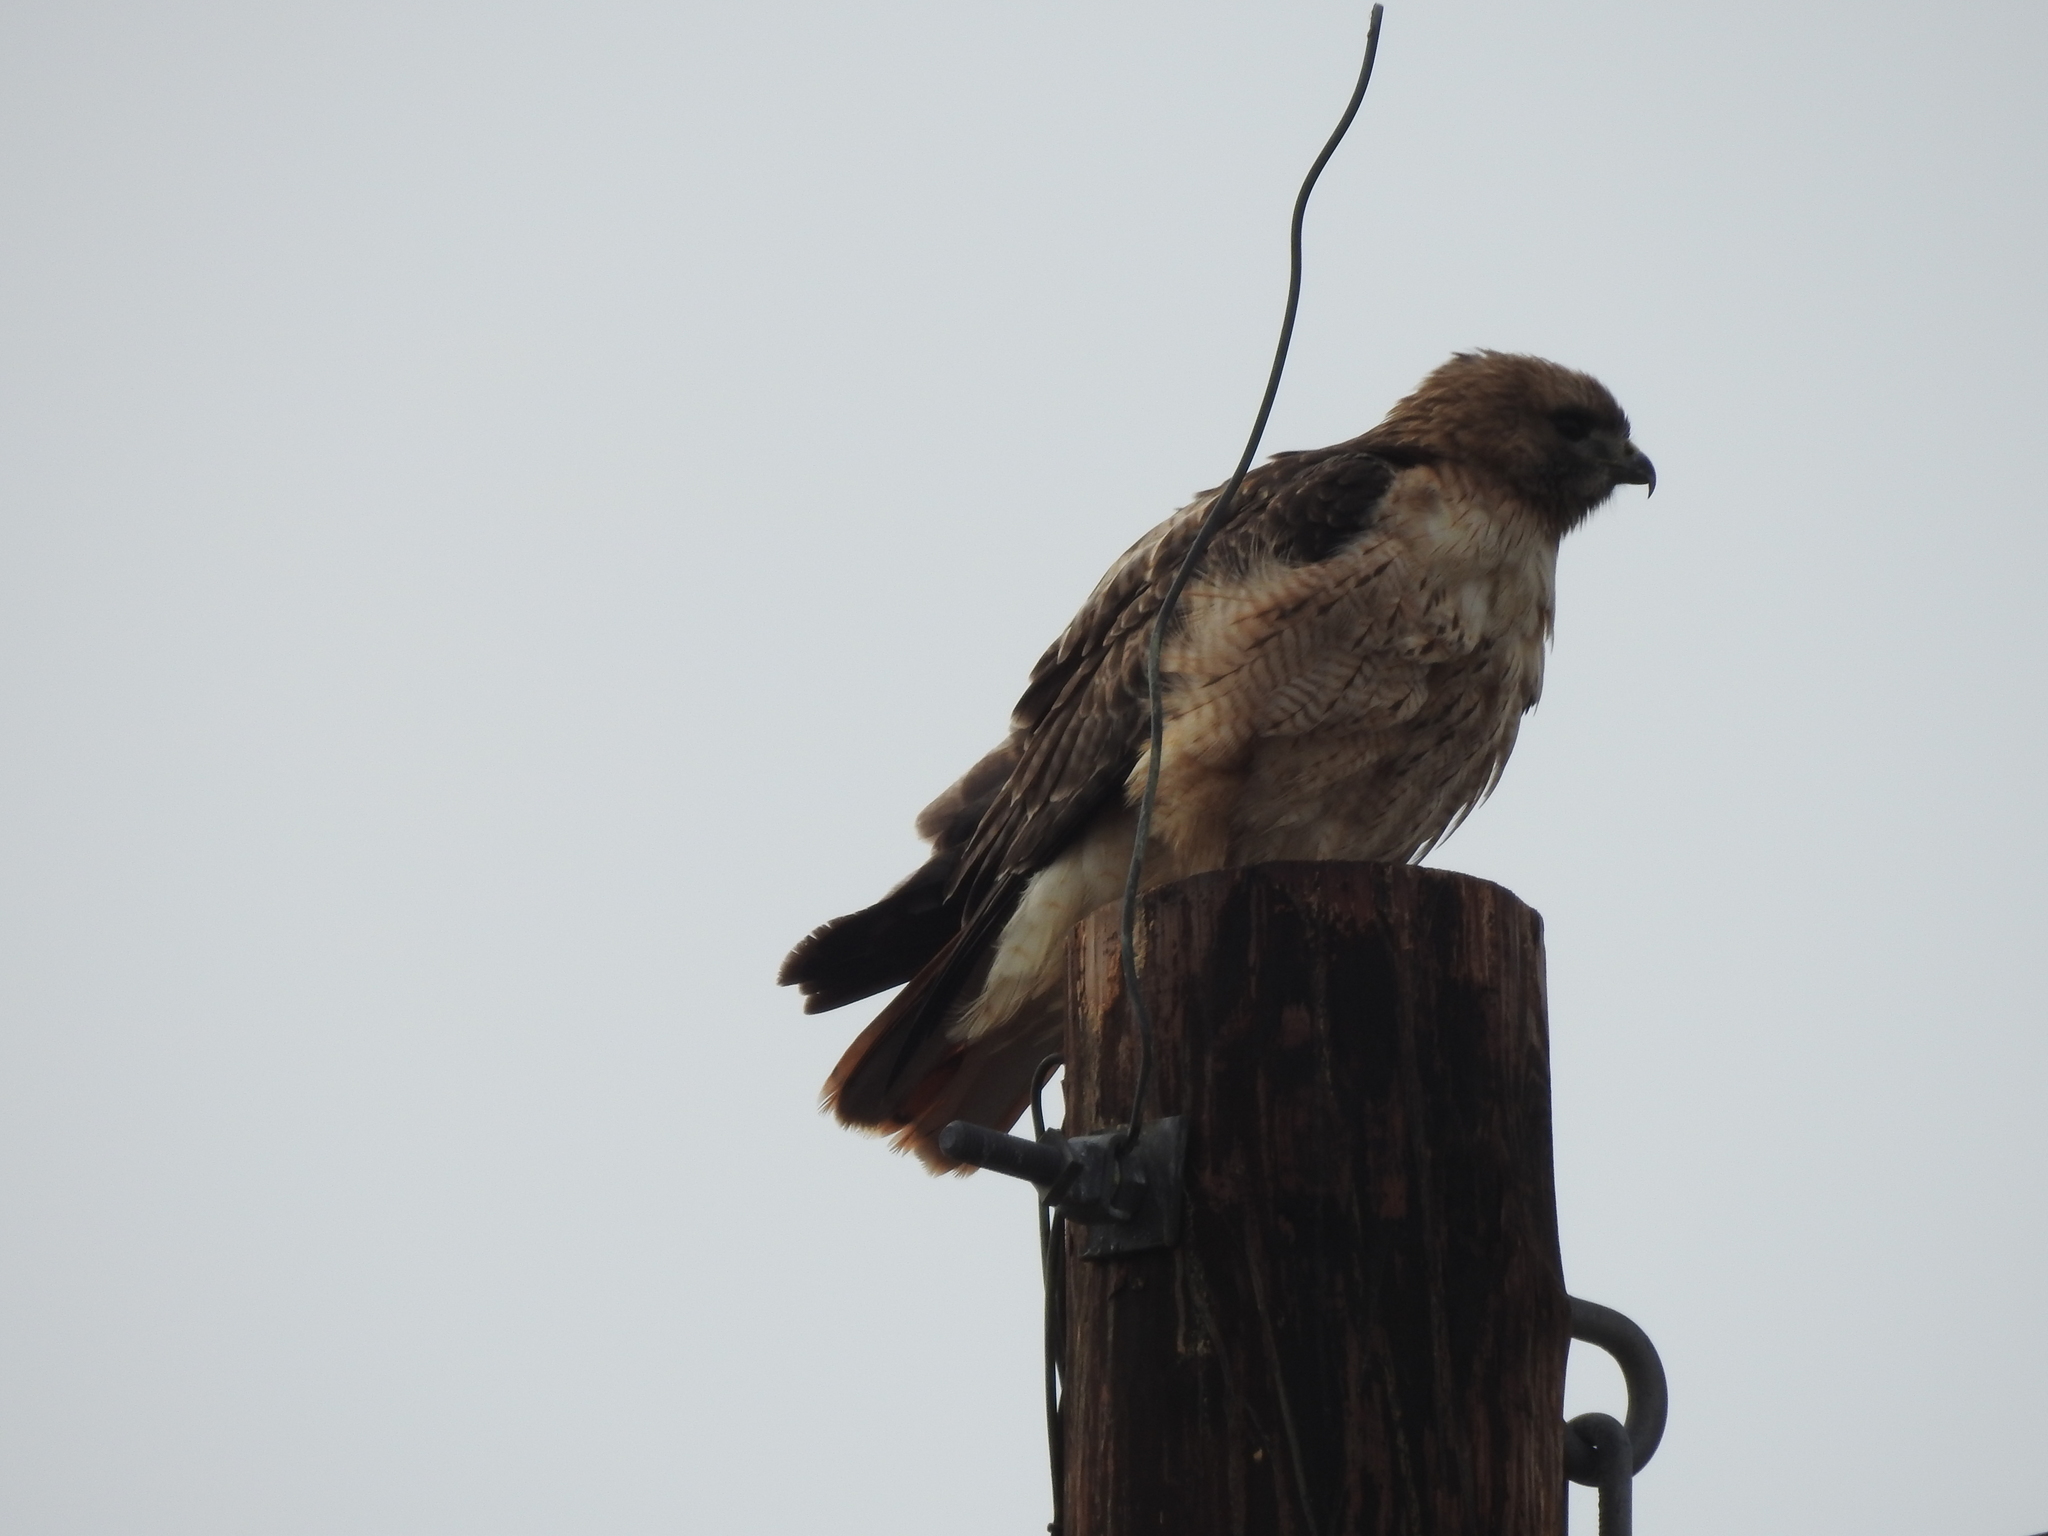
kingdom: Animalia
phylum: Chordata
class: Aves
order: Accipitriformes
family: Accipitridae
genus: Buteo
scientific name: Buteo jamaicensis
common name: Red-tailed hawk
